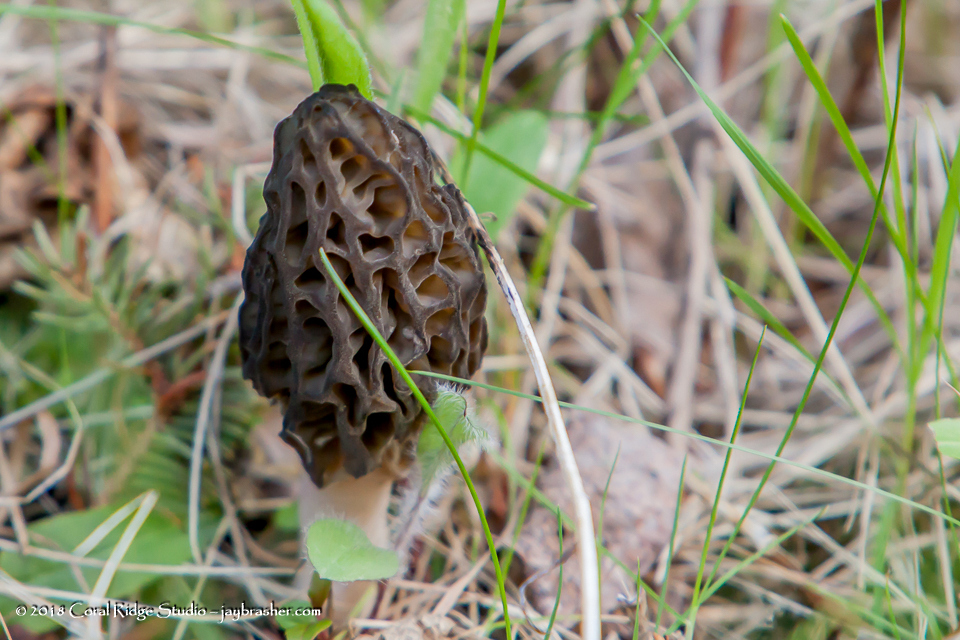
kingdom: Fungi
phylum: Ascomycota
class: Pezizomycetes
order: Pezizales
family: Morchellaceae
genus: Morchella
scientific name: Morchella angusticeps
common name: Black morel
